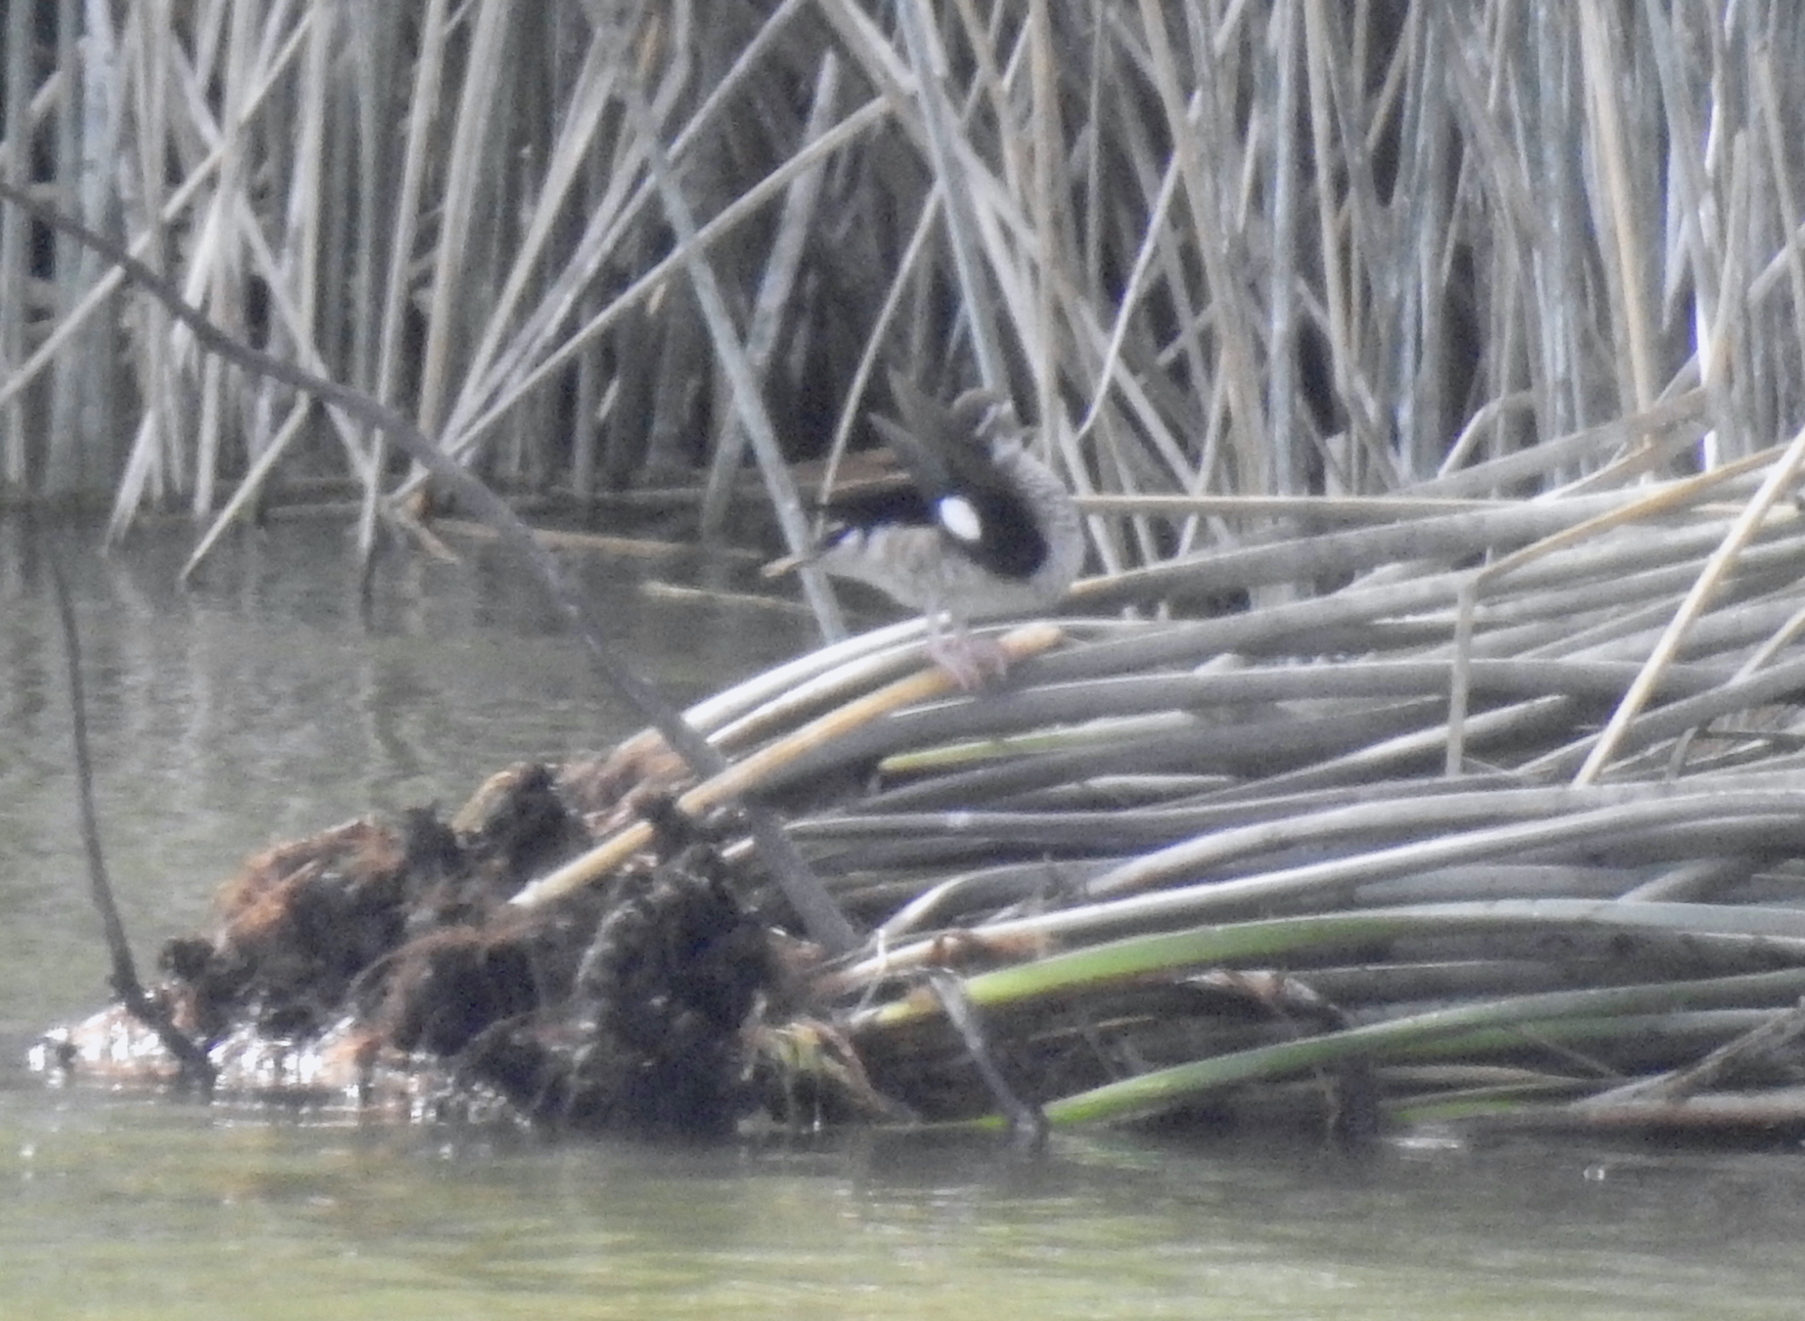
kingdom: Animalia
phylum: Chordata
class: Aves
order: Anseriformes
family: Anatidae
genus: Callonetta
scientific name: Callonetta leucophrys
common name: Ringed teal
